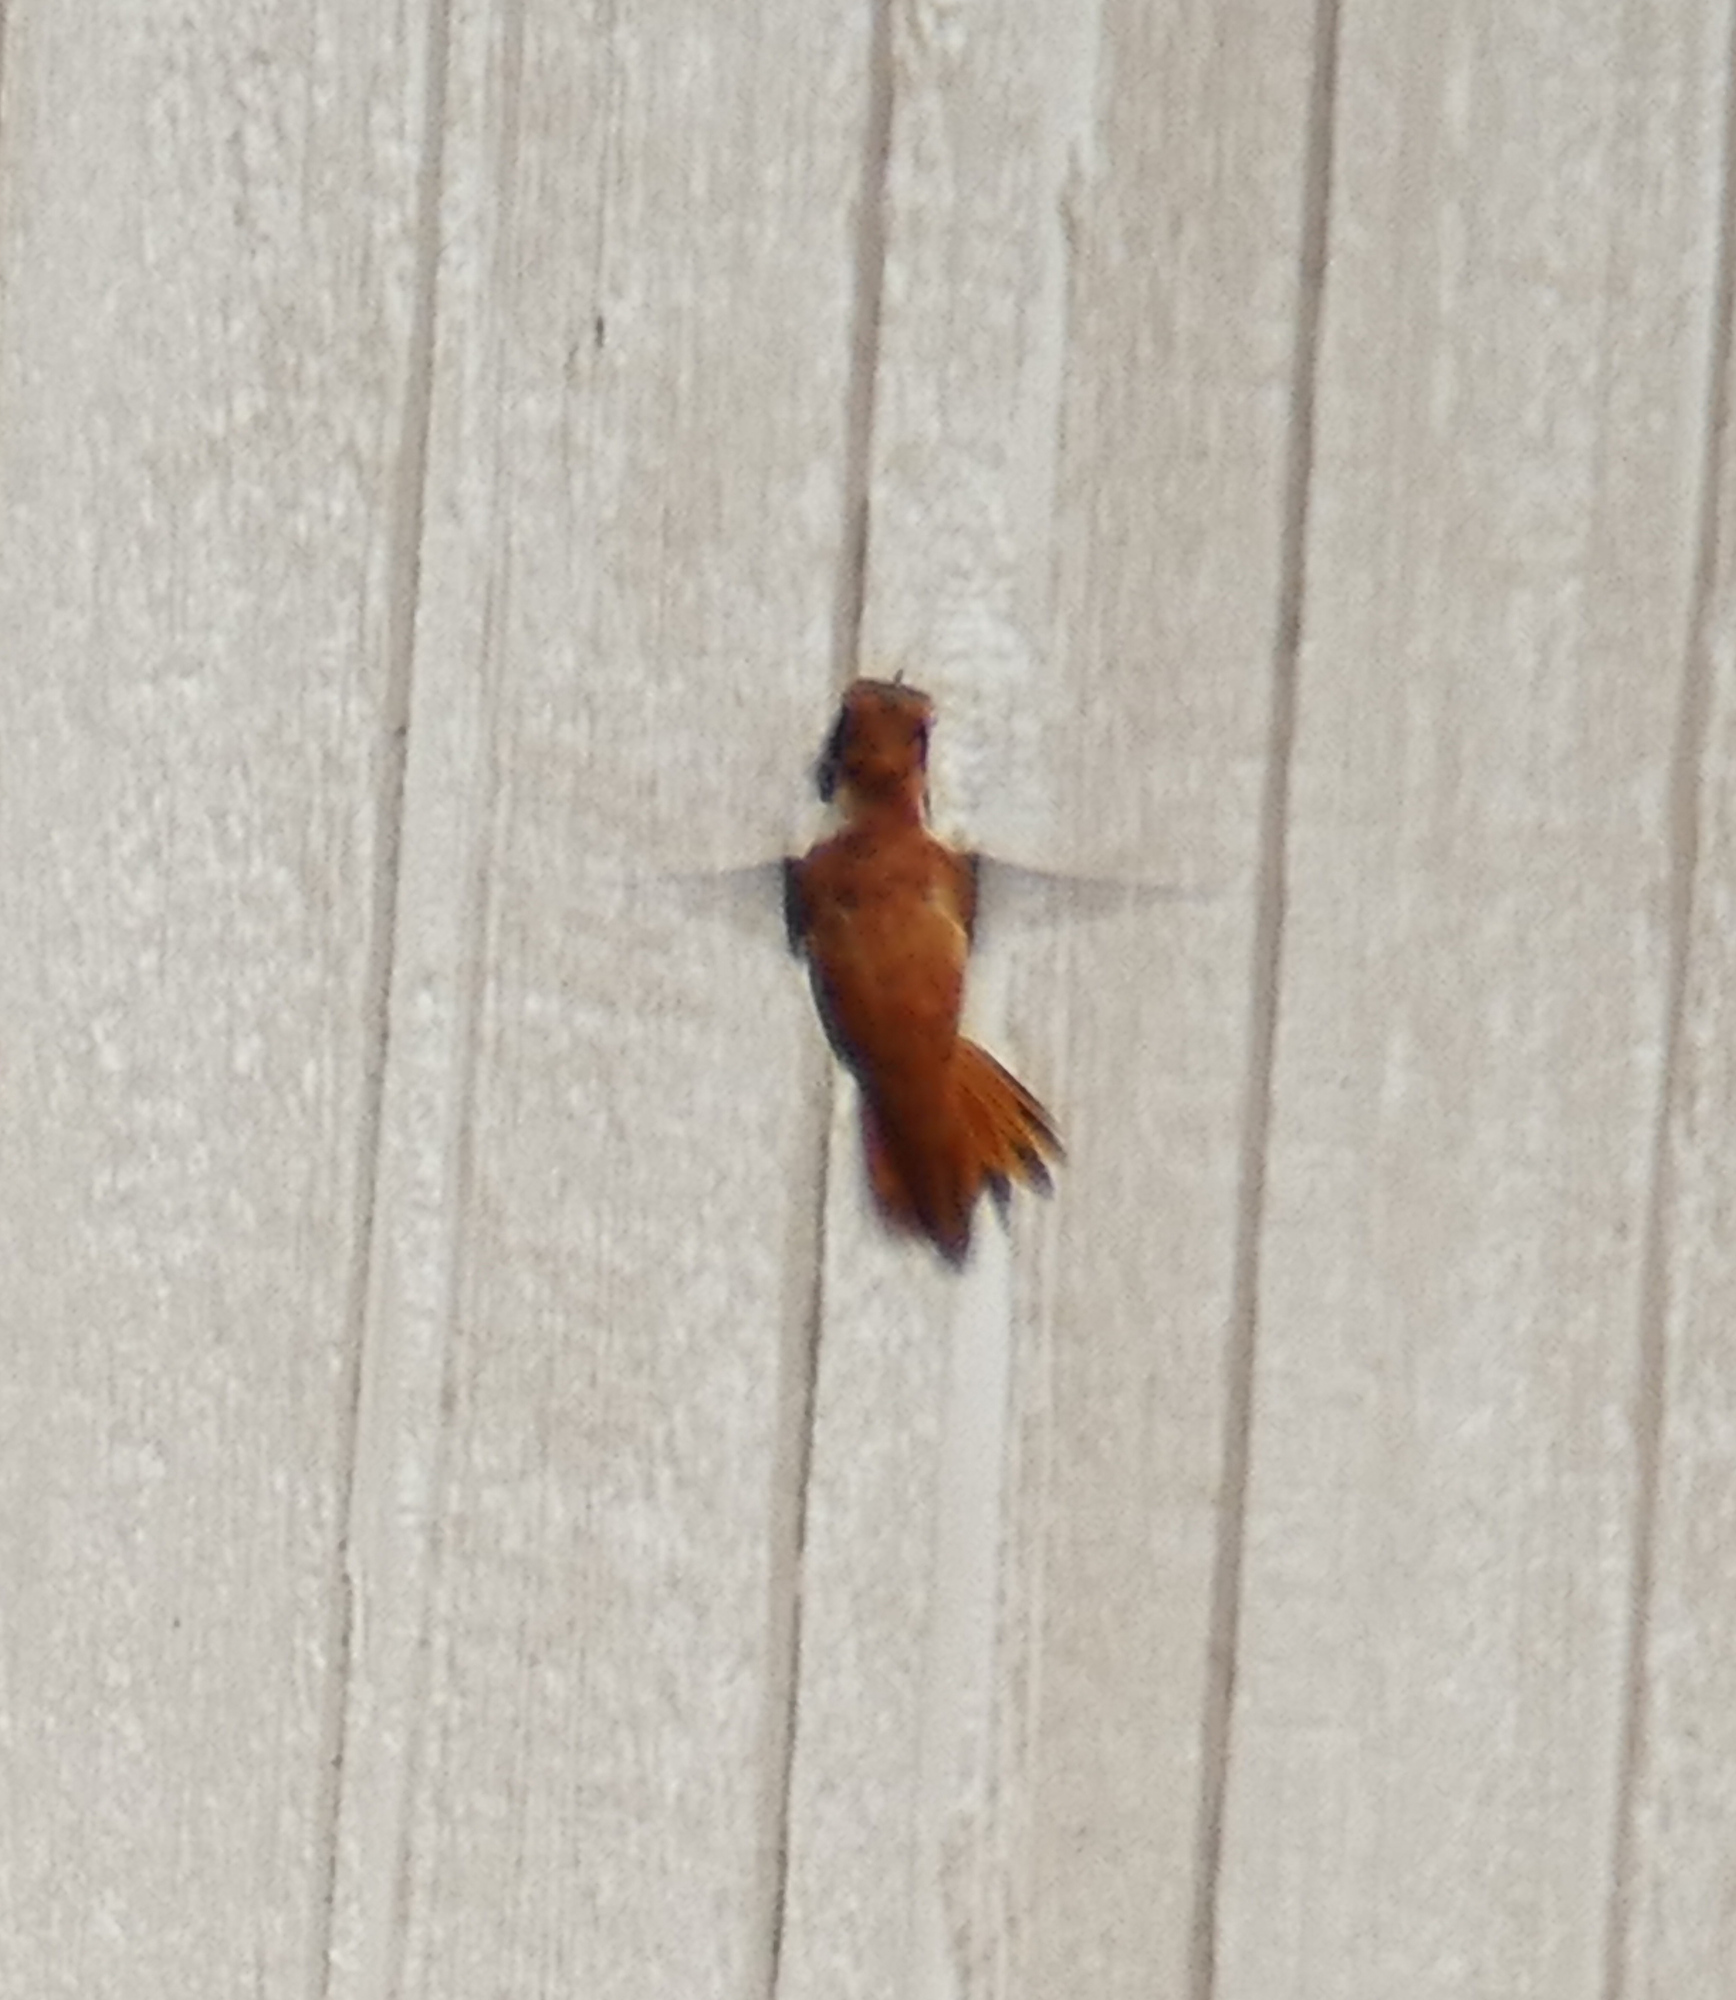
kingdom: Animalia
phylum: Chordata
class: Aves
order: Apodiformes
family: Trochilidae
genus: Selasphorus
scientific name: Selasphorus rufus
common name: Rufous hummingbird
